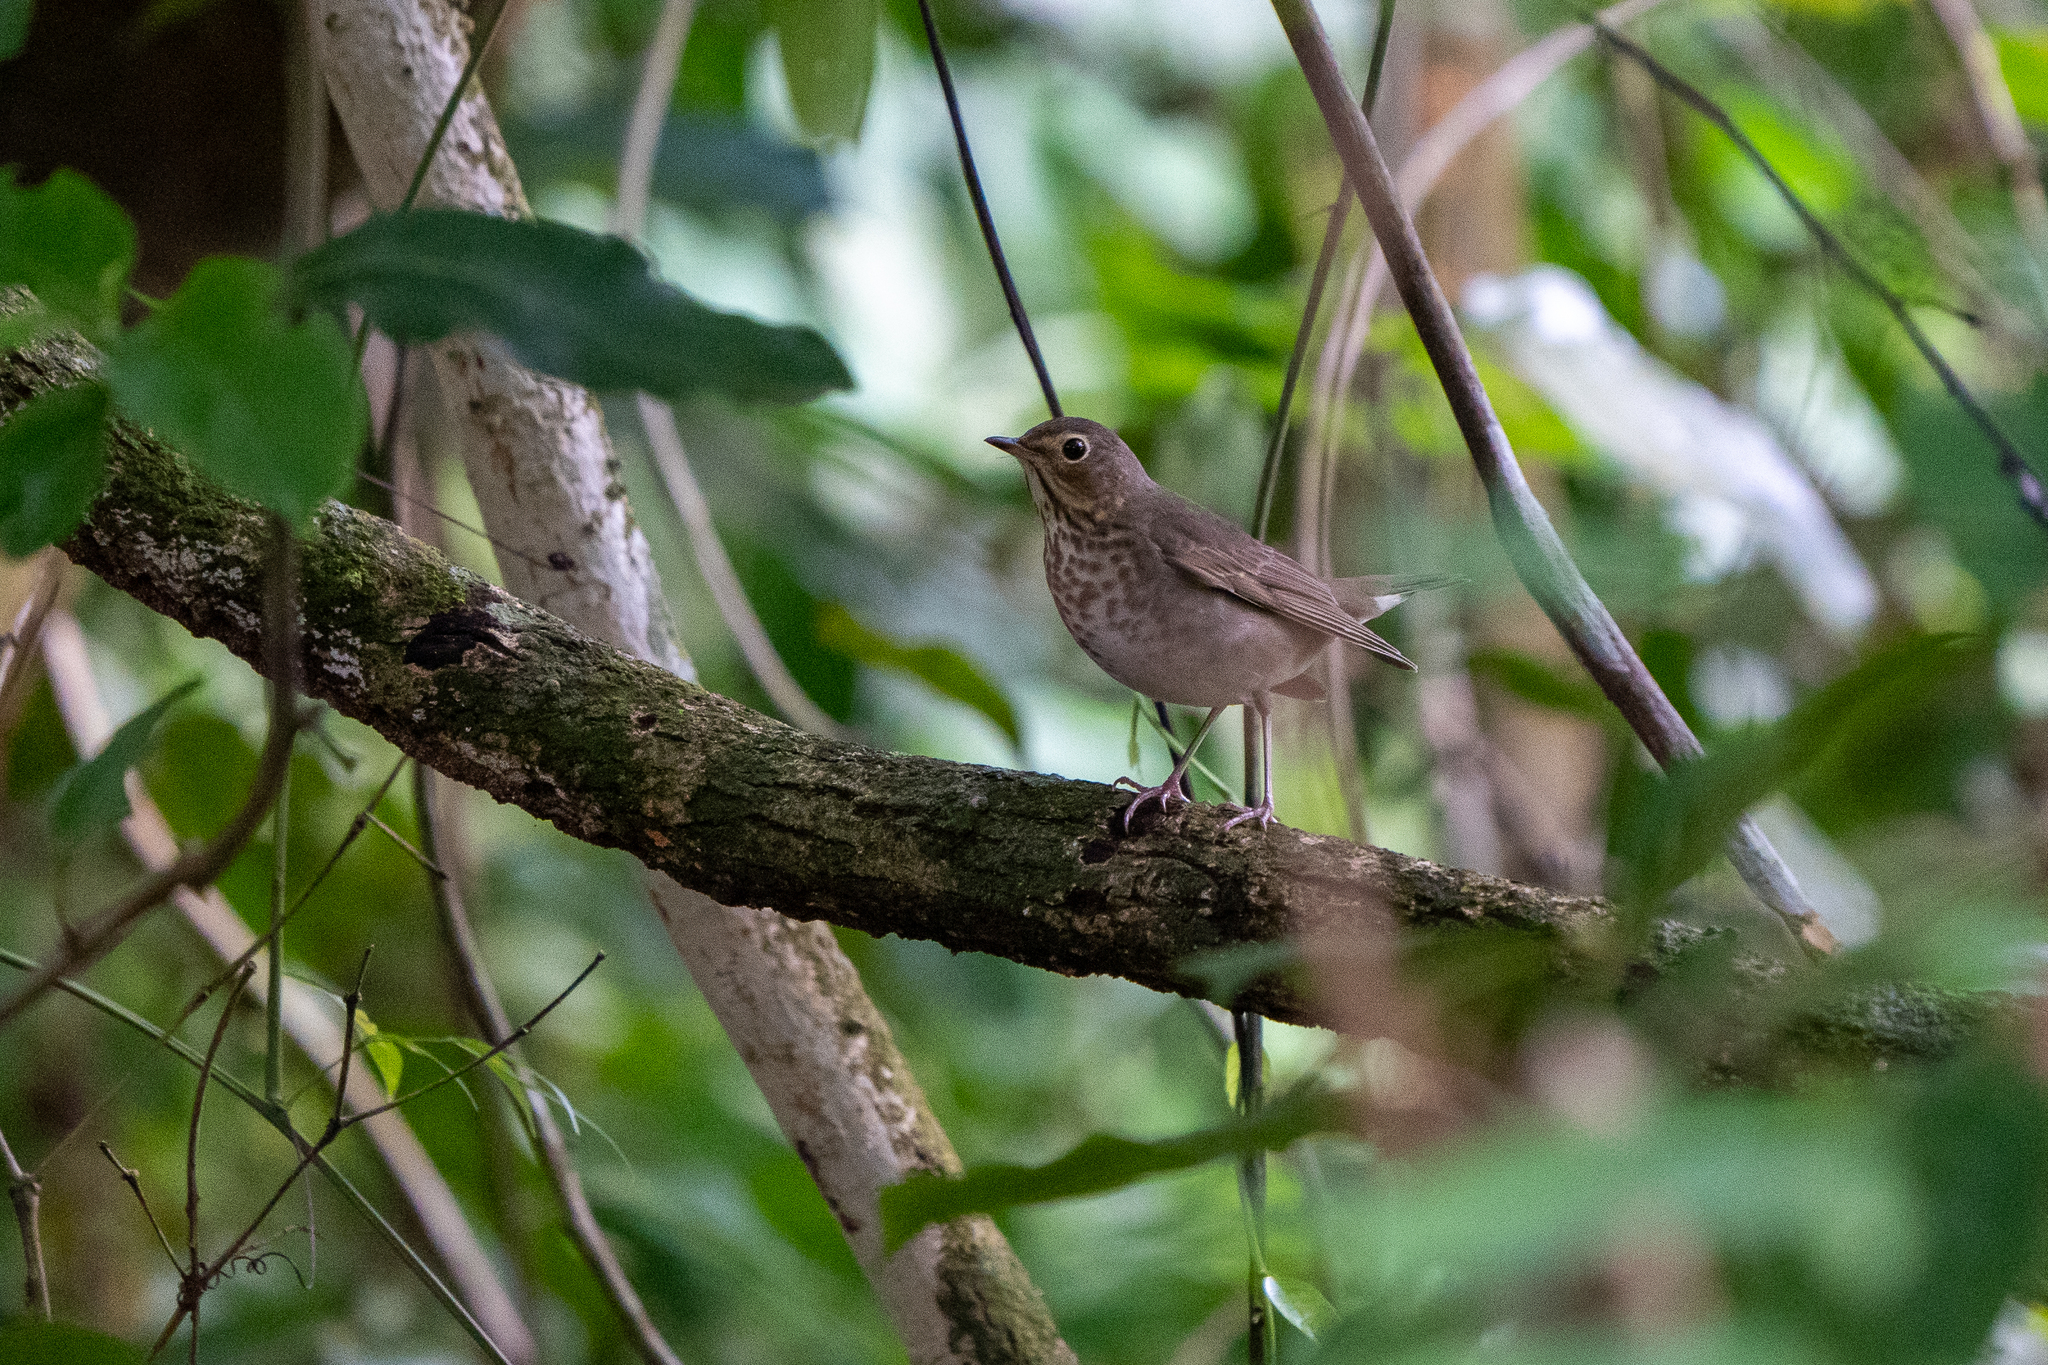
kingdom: Animalia
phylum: Chordata
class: Aves
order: Passeriformes
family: Turdidae
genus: Catharus
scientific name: Catharus ustulatus
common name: Swainson's thrush
